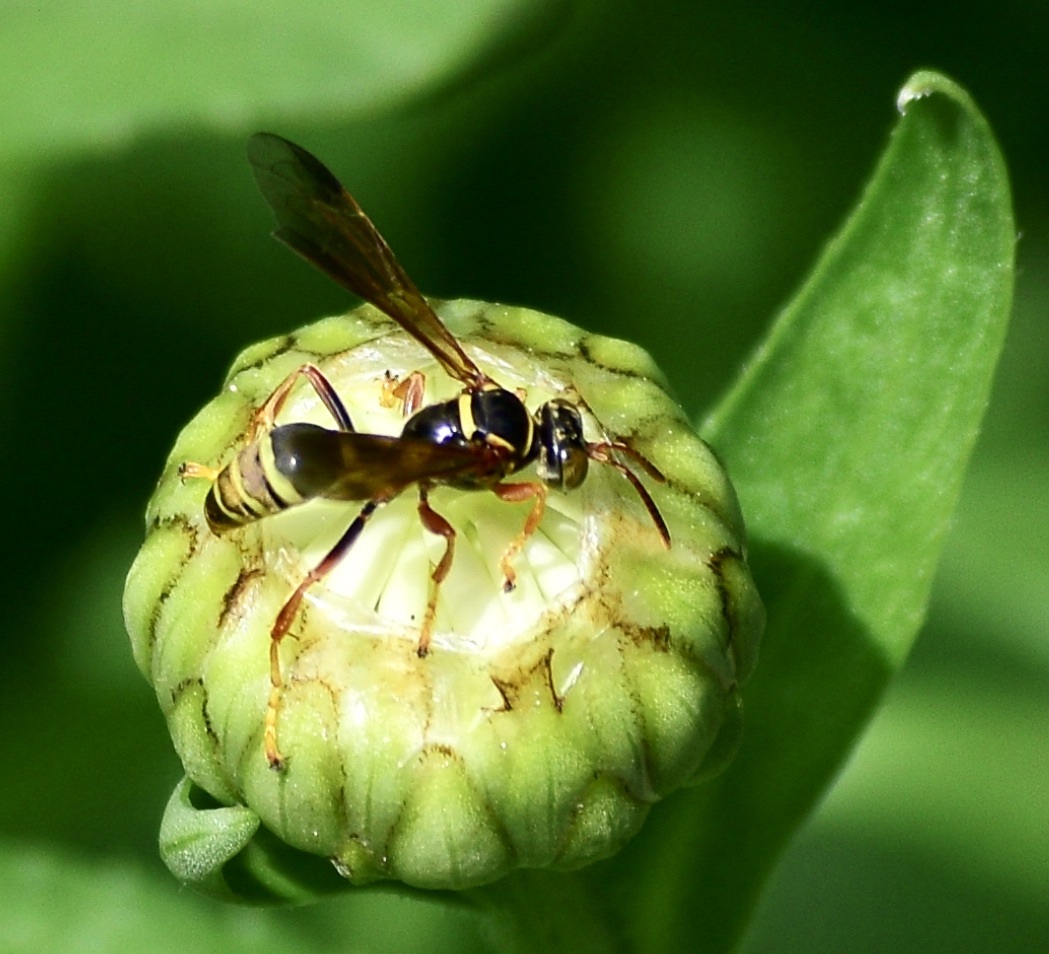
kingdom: Animalia
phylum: Arthropoda
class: Insecta
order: Hymenoptera
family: Crabronidae
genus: Saygorytes
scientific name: Saygorytes phaleratus
